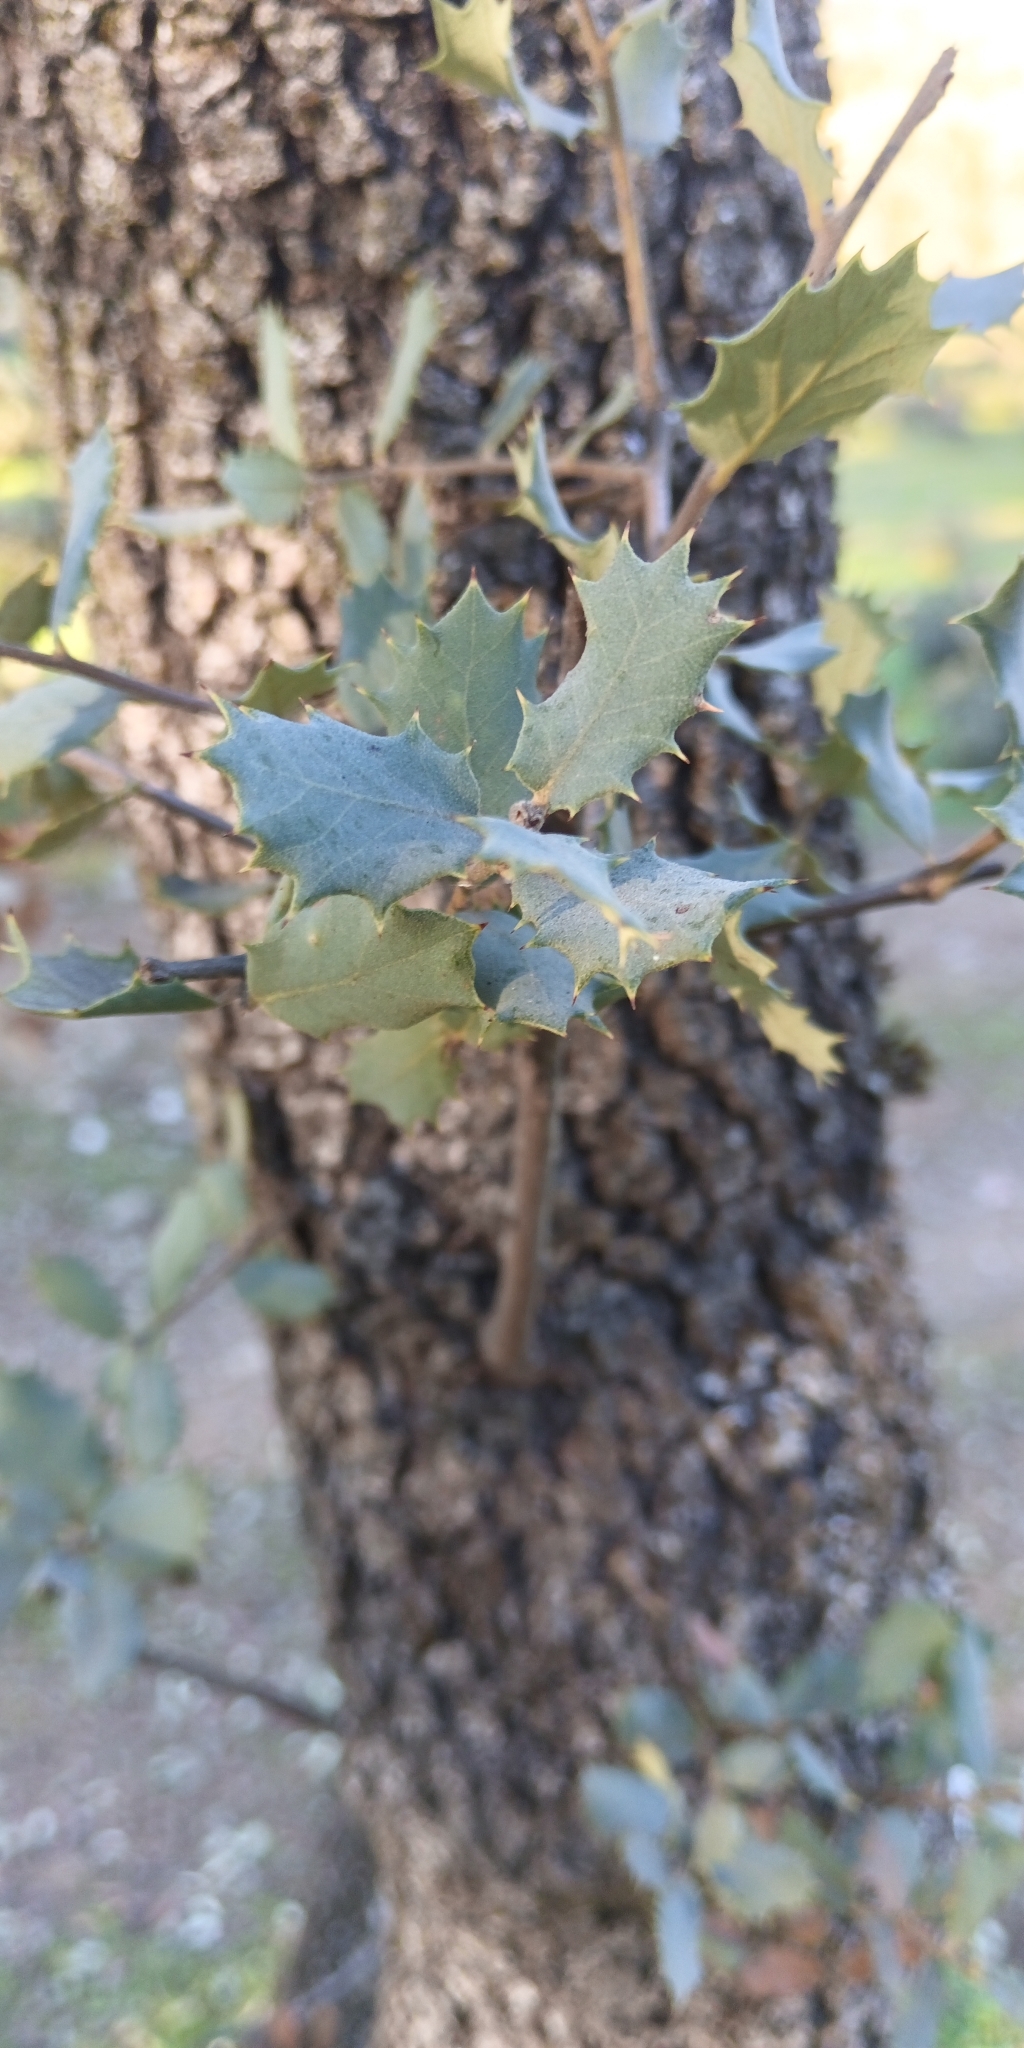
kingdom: Plantae
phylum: Tracheophyta
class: Magnoliopsida
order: Fagales
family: Fagaceae
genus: Quercus
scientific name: Quercus rotundifolia
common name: Holm oak
